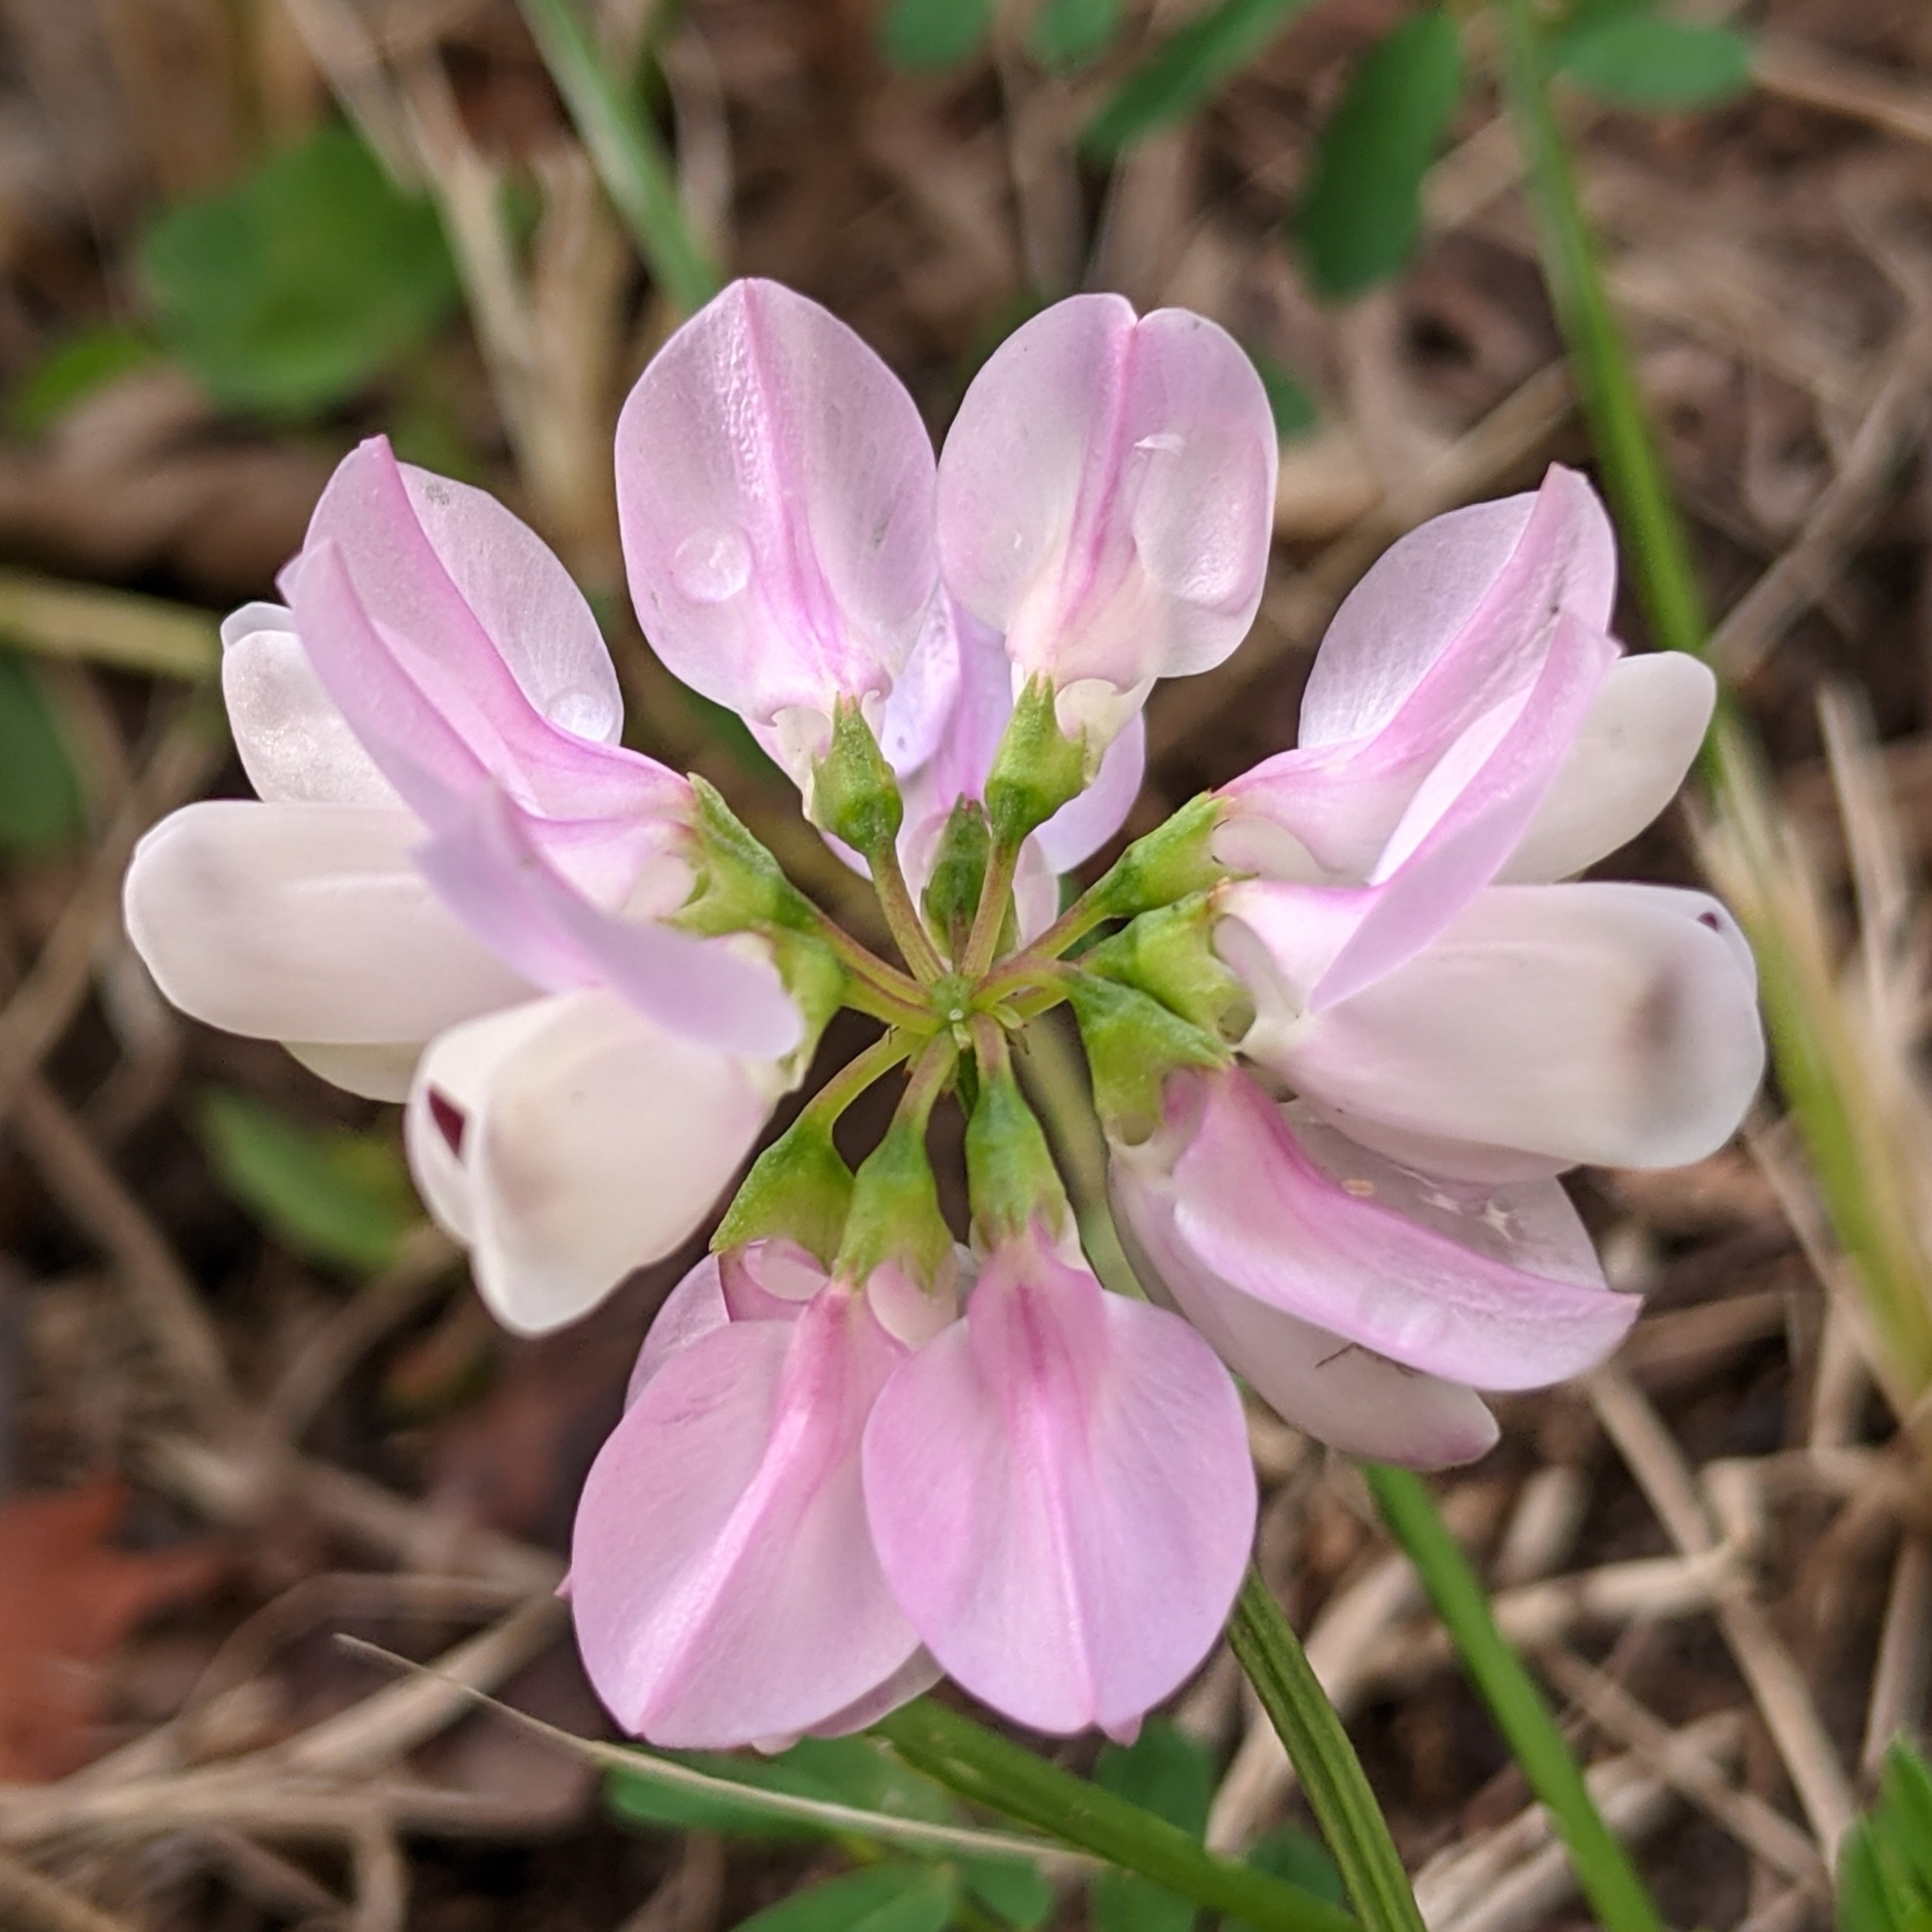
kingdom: Plantae
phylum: Tracheophyta
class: Magnoliopsida
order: Fabales
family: Fabaceae
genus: Coronilla
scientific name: Coronilla varia
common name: Crownvetch
